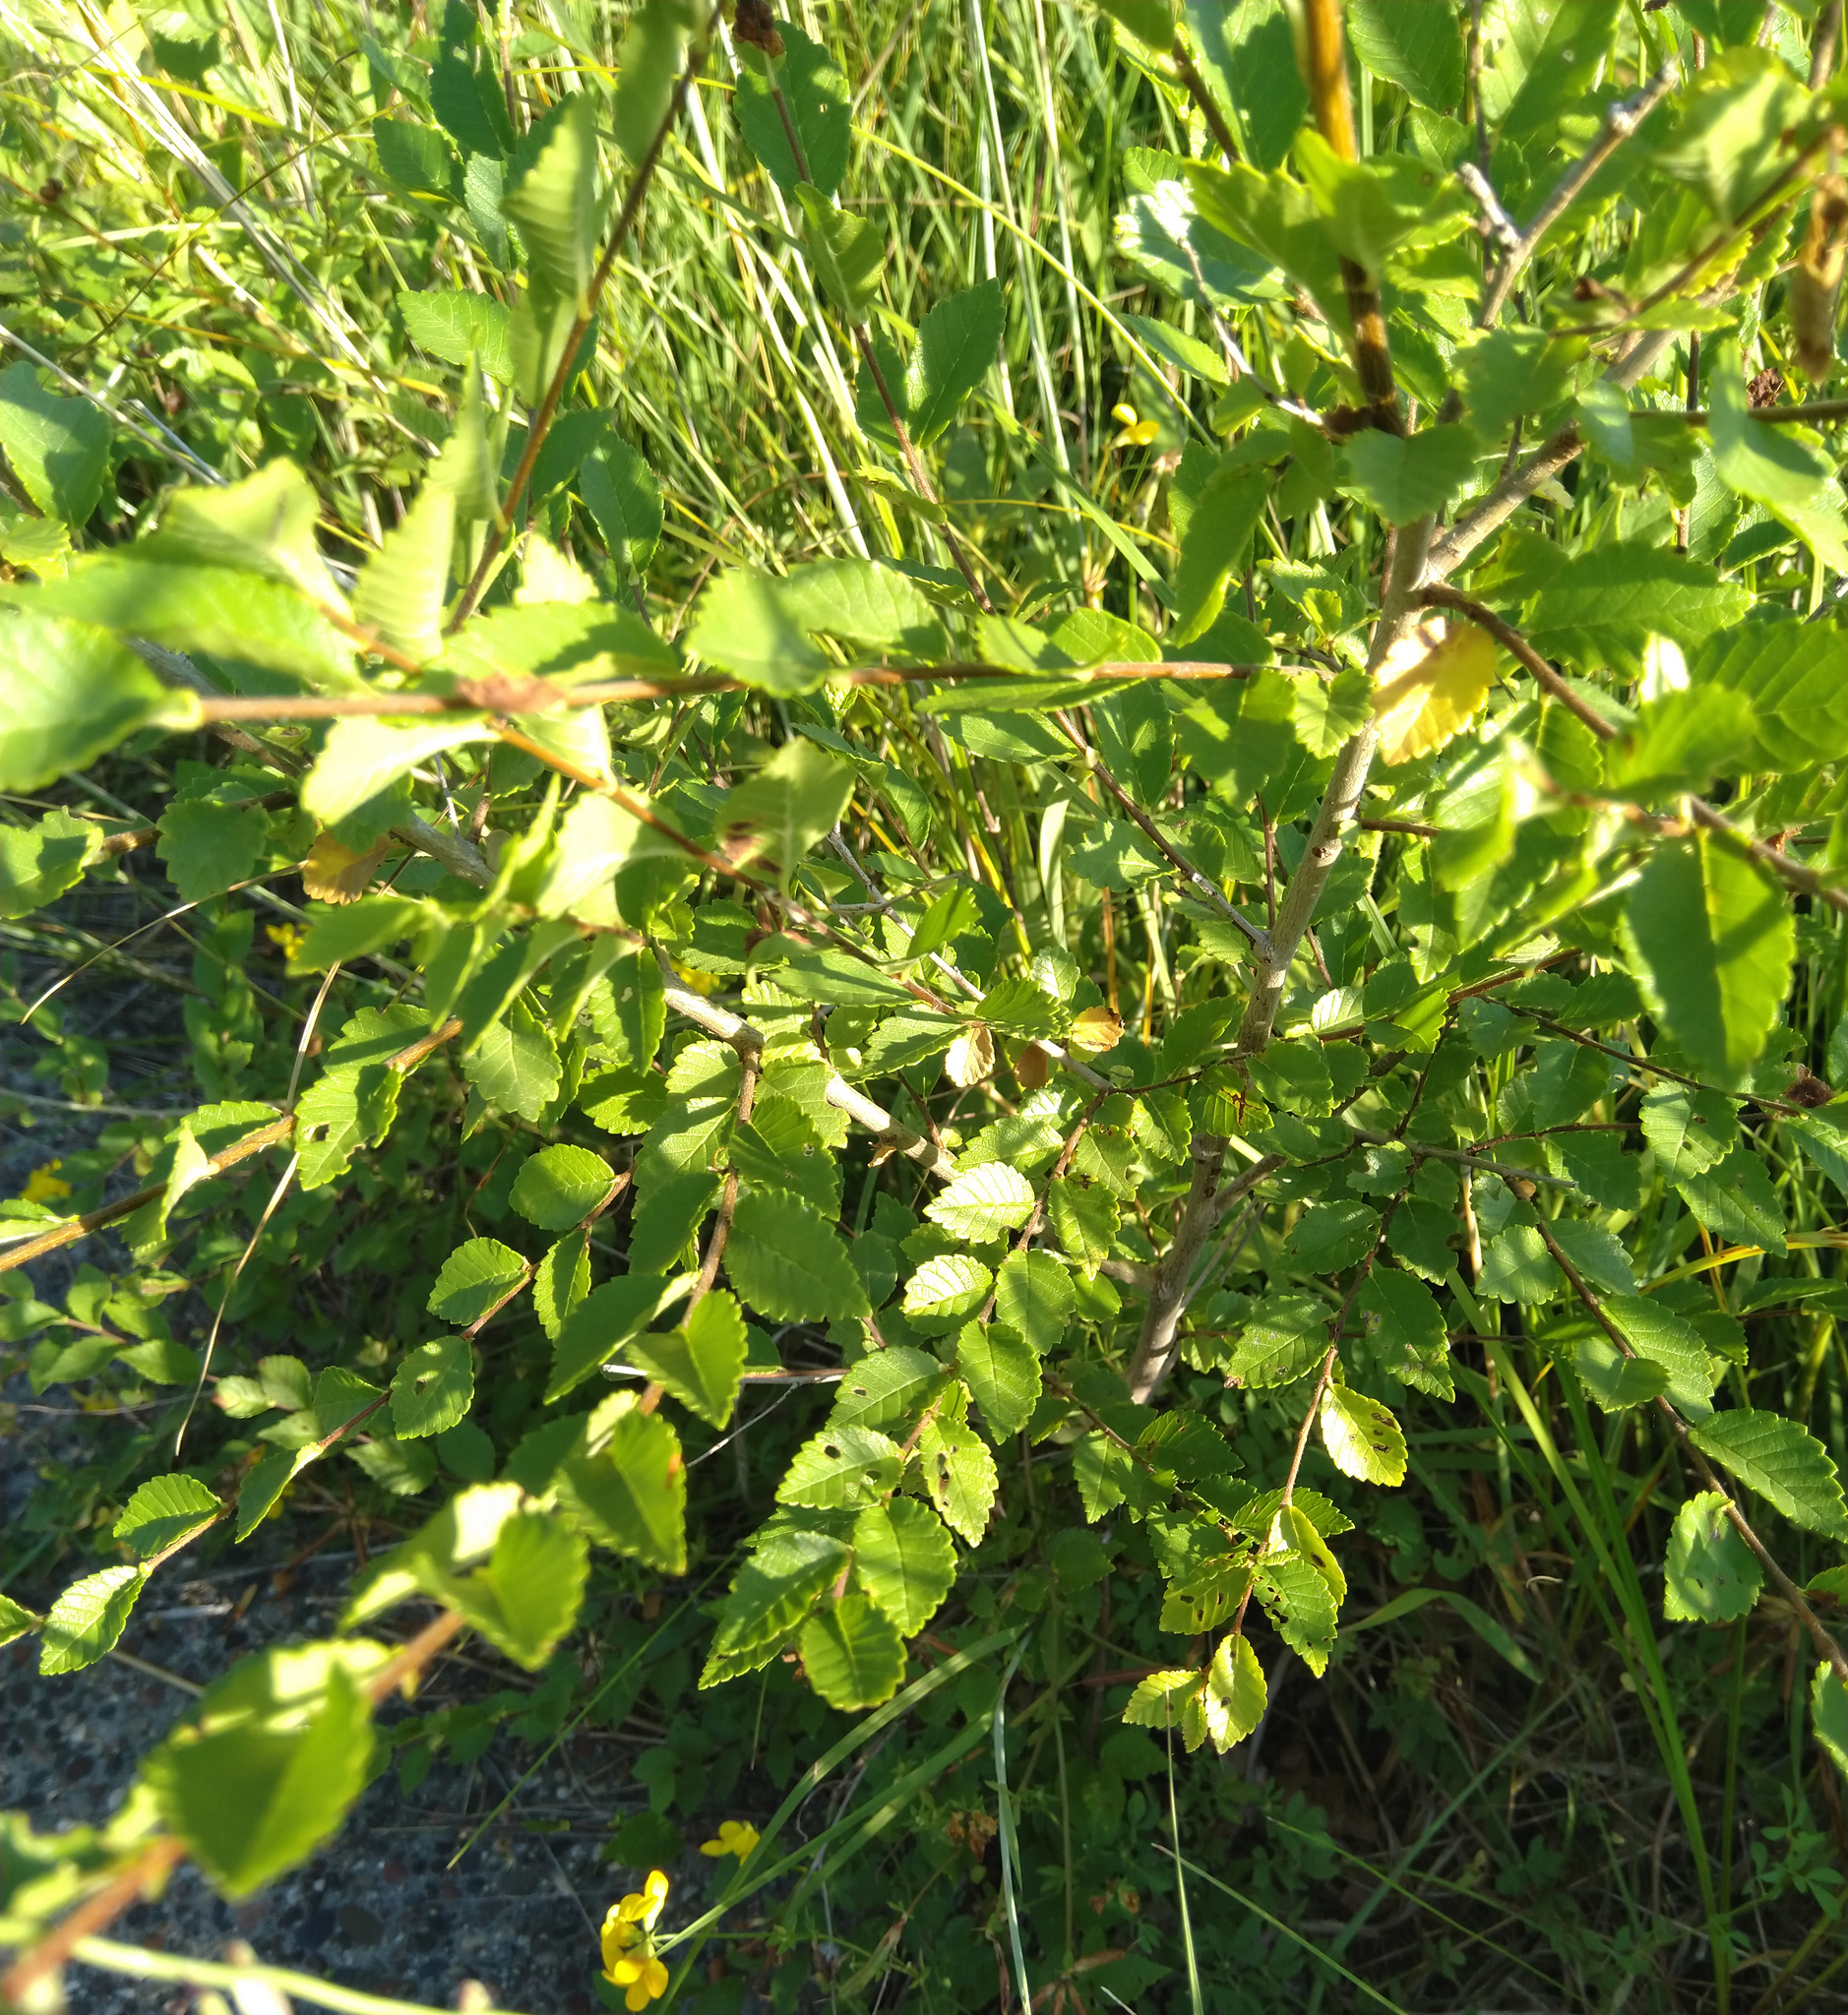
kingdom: Plantae
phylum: Tracheophyta
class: Magnoliopsida
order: Rosales
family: Ulmaceae
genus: Ulmus
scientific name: Ulmus pumila
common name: Siberian elm
